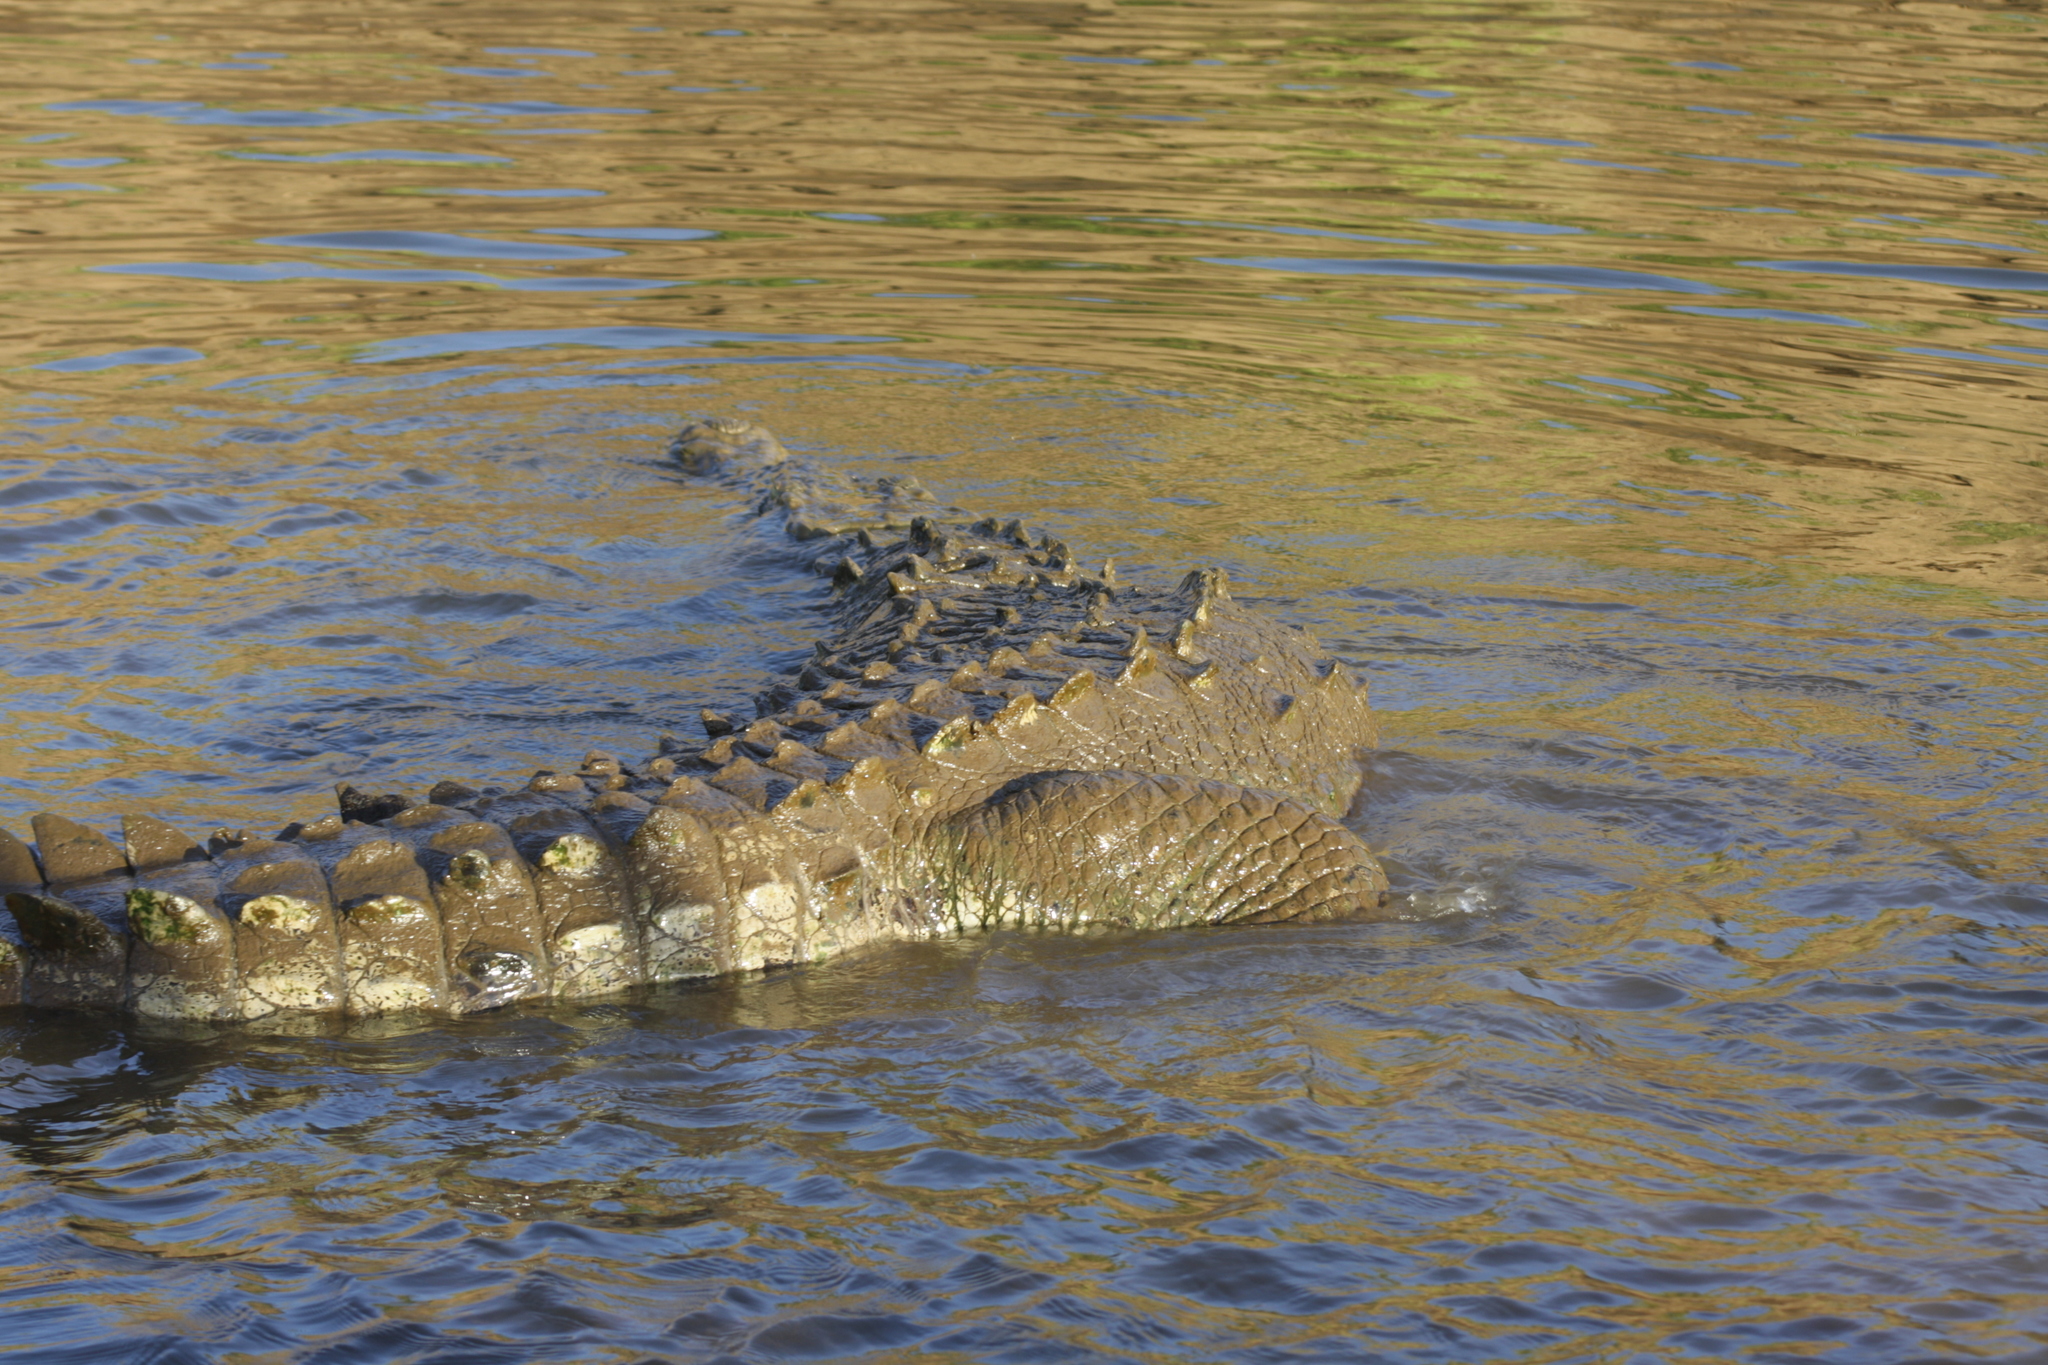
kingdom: Animalia
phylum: Chordata
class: Crocodylia
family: Crocodylidae
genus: Crocodylus
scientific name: Crocodylus acutus
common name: American crocodile
